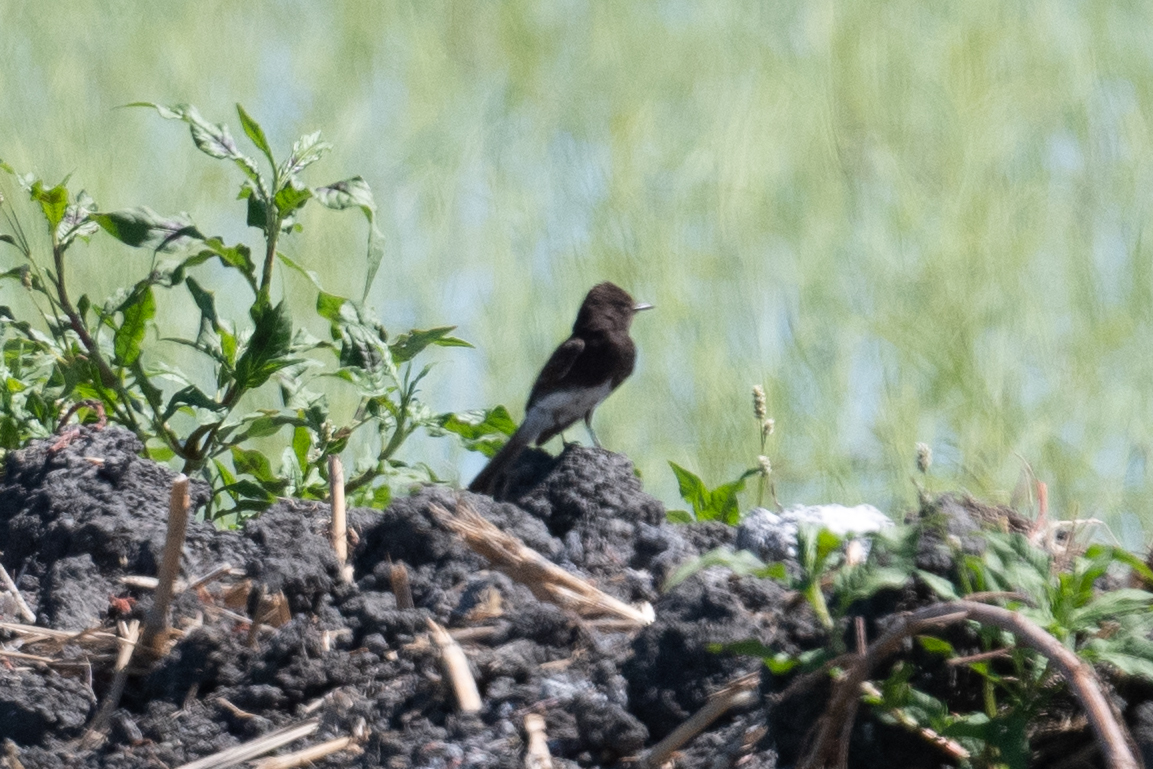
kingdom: Animalia
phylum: Chordata
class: Aves
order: Passeriformes
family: Tyrannidae
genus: Sayornis
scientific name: Sayornis nigricans
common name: Black phoebe
